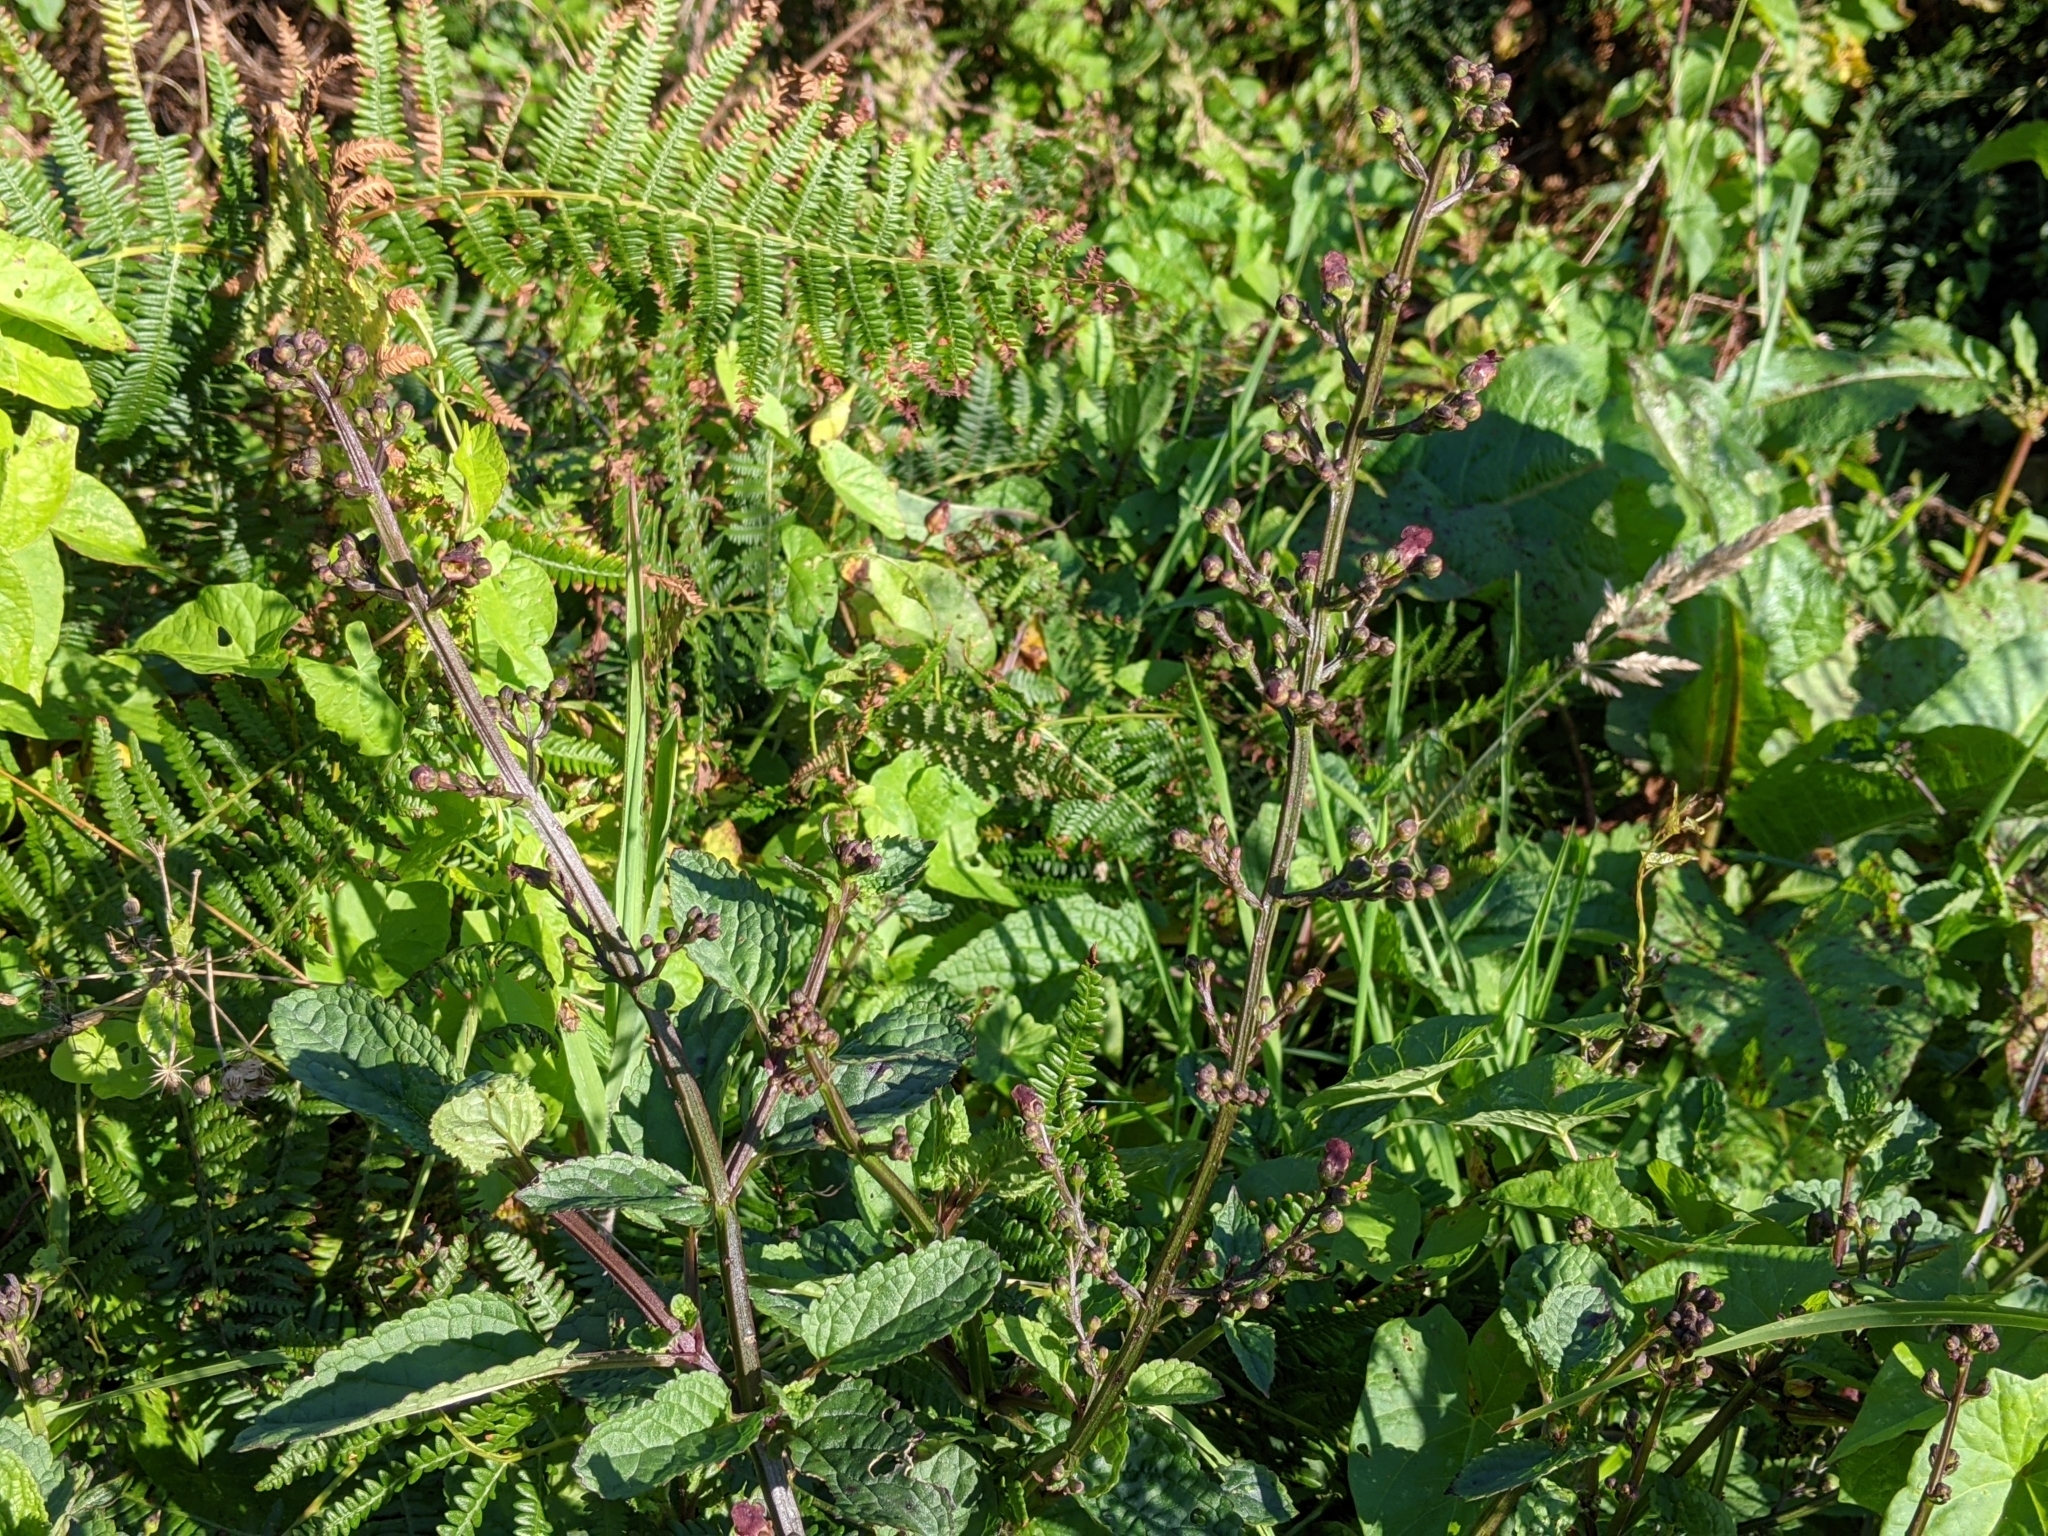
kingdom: Plantae
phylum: Tracheophyta
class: Magnoliopsida
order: Lamiales
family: Scrophulariaceae
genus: Scrophularia
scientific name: Scrophularia auriculata
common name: Water betony
